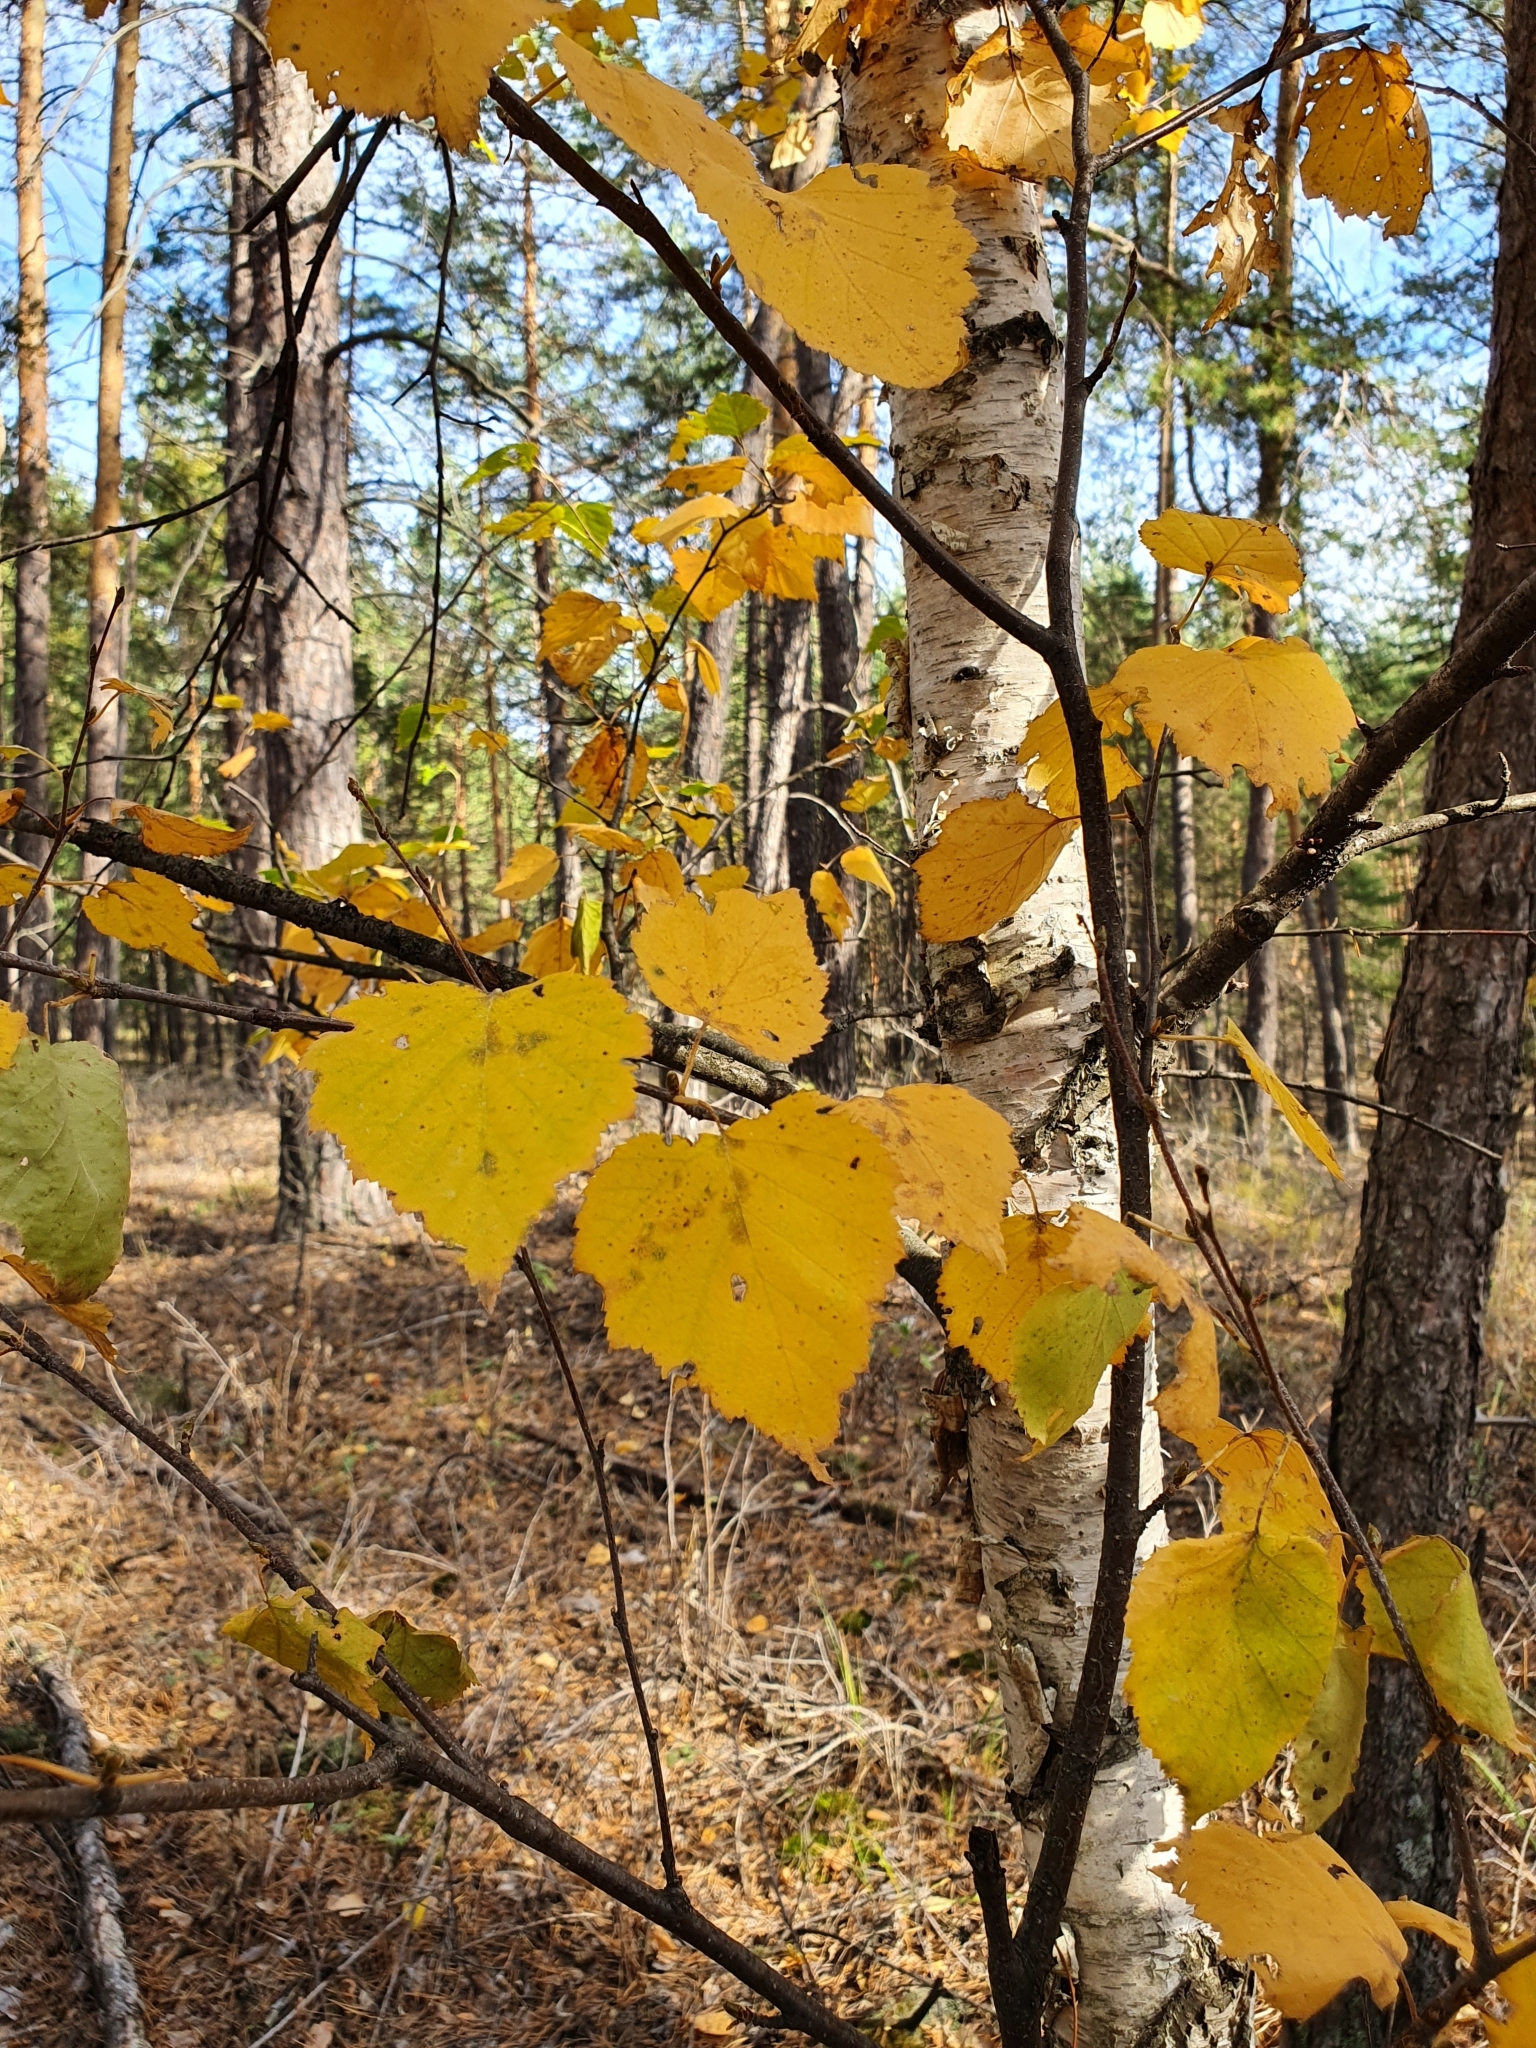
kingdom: Plantae
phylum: Tracheophyta
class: Magnoliopsida
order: Fagales
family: Betulaceae
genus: Betula
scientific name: Betula pendula
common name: Silver birch
